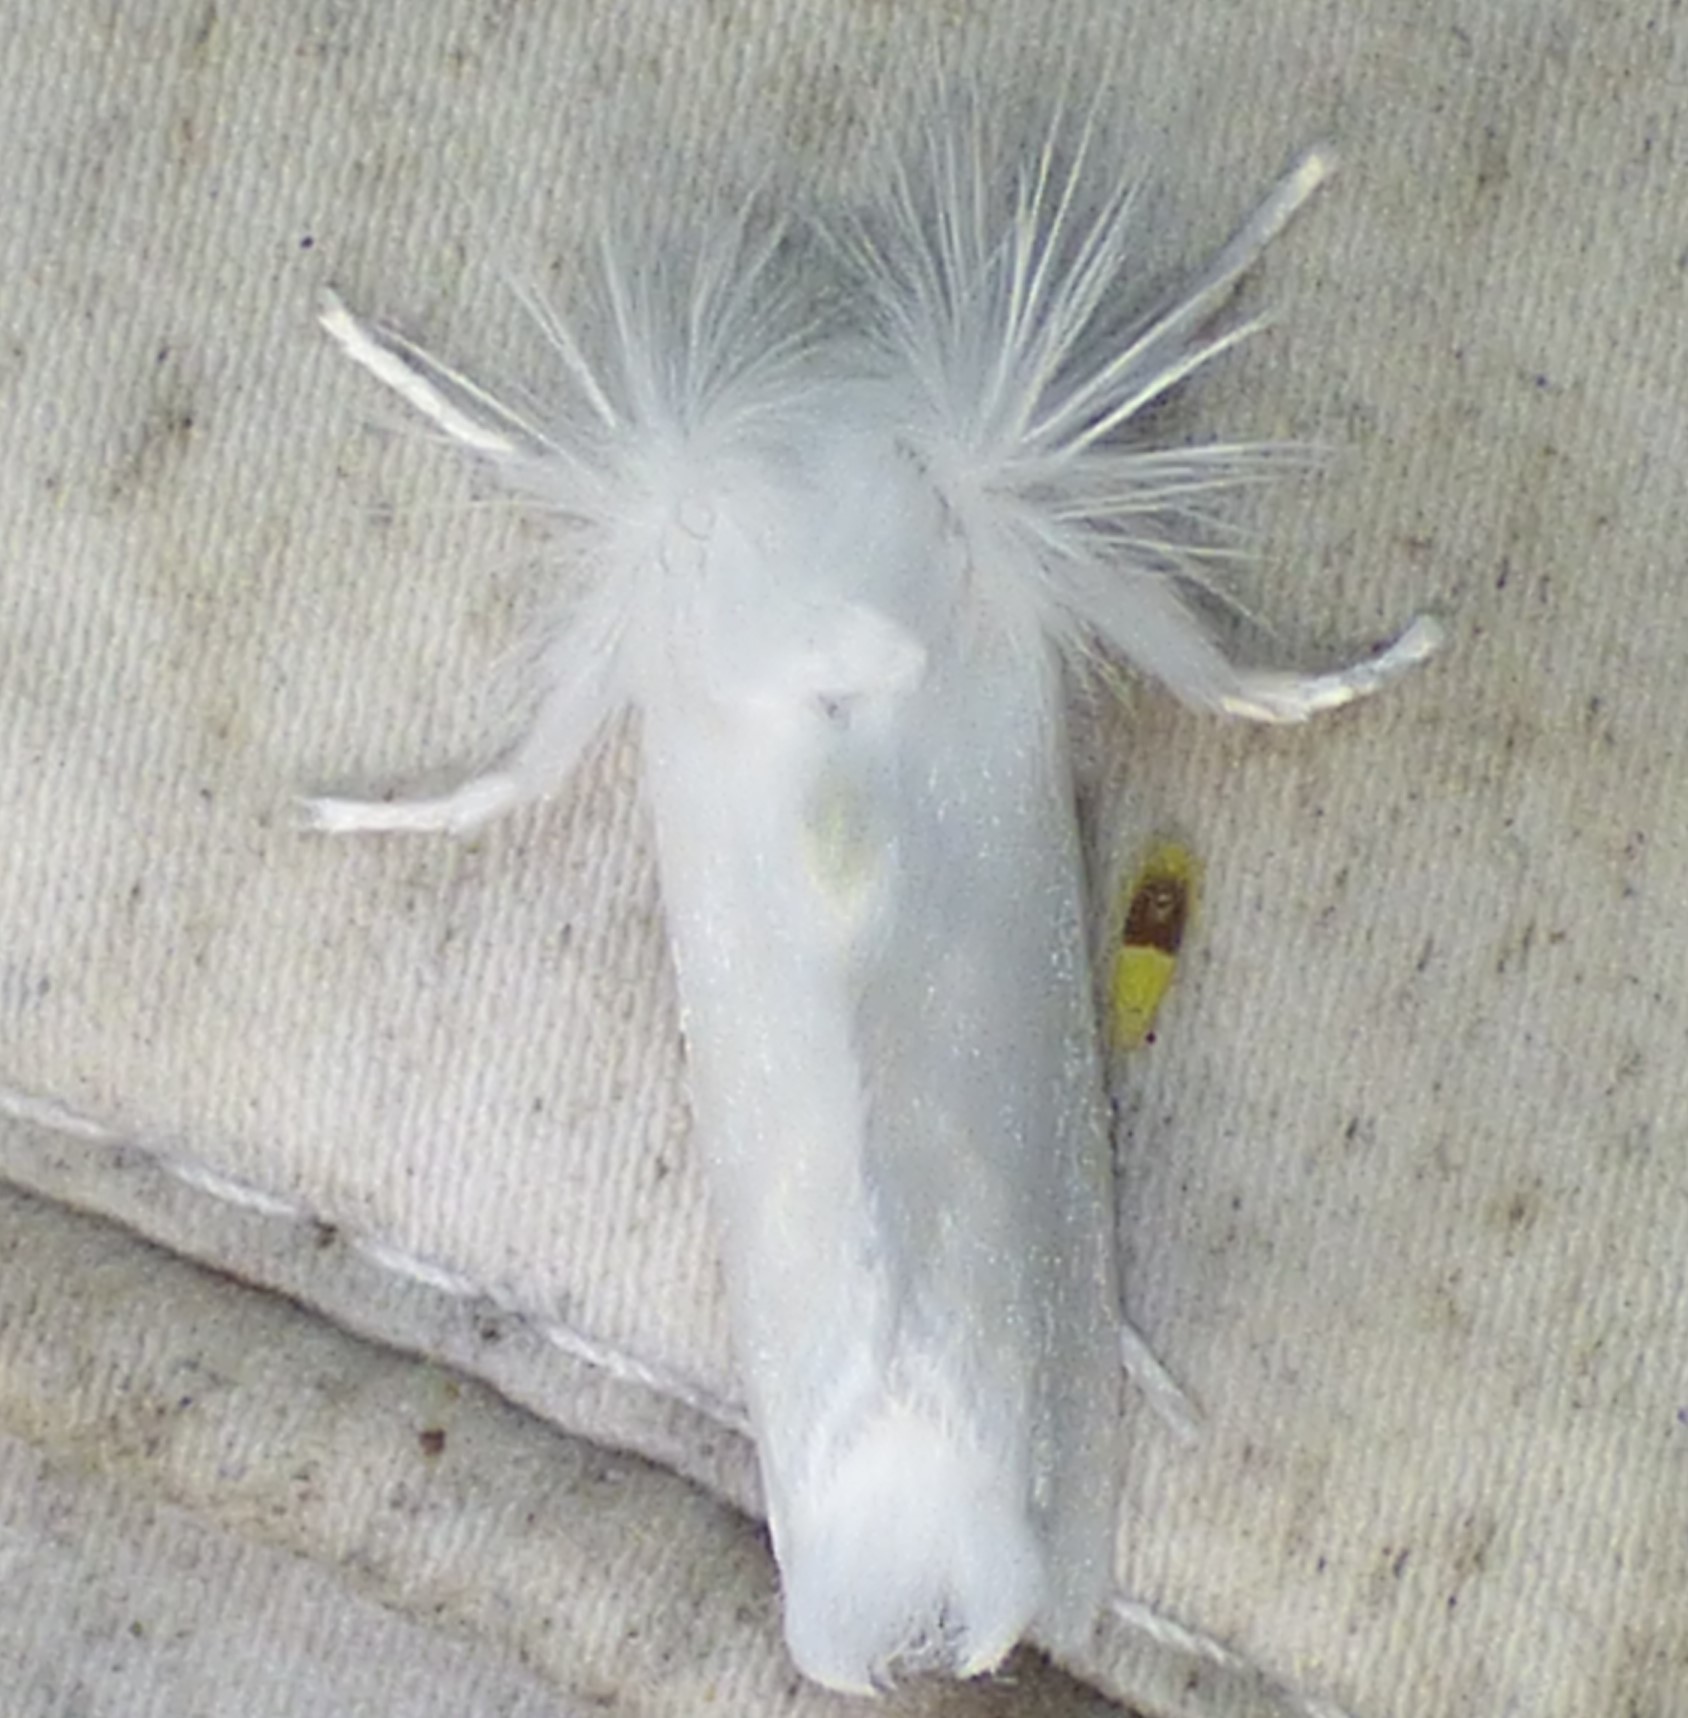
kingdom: Animalia
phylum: Arthropoda
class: Insecta
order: Lepidoptera
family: Megalopygidae
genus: Norape
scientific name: Norape cretata
